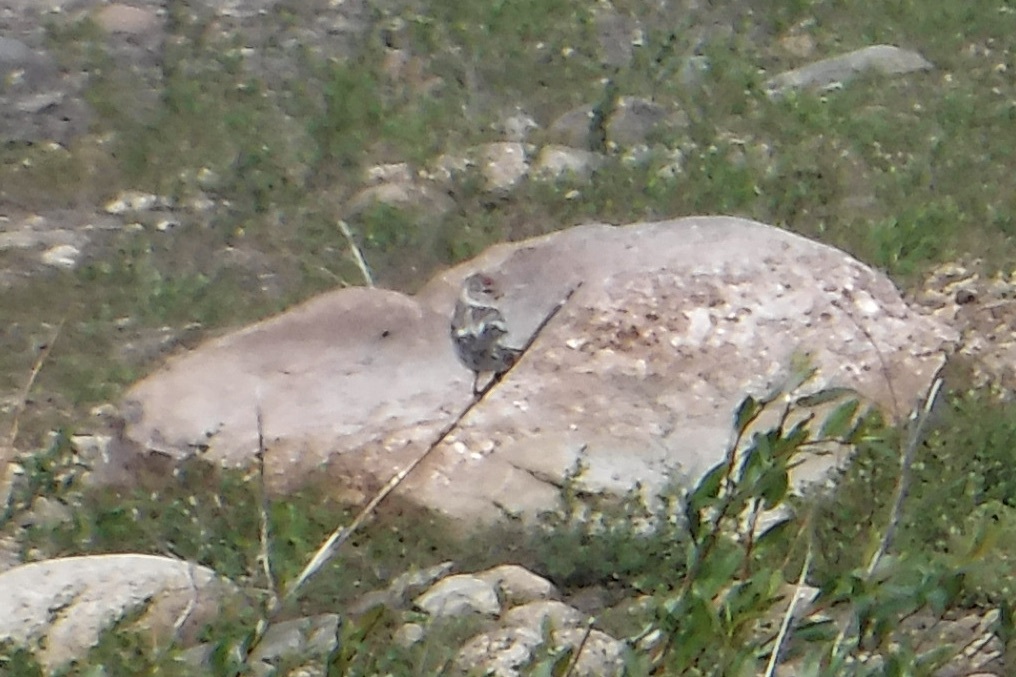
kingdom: Animalia
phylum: Chordata
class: Aves
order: Passeriformes
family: Fringillidae
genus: Acanthis
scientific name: Acanthis flammea
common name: Common redpoll
